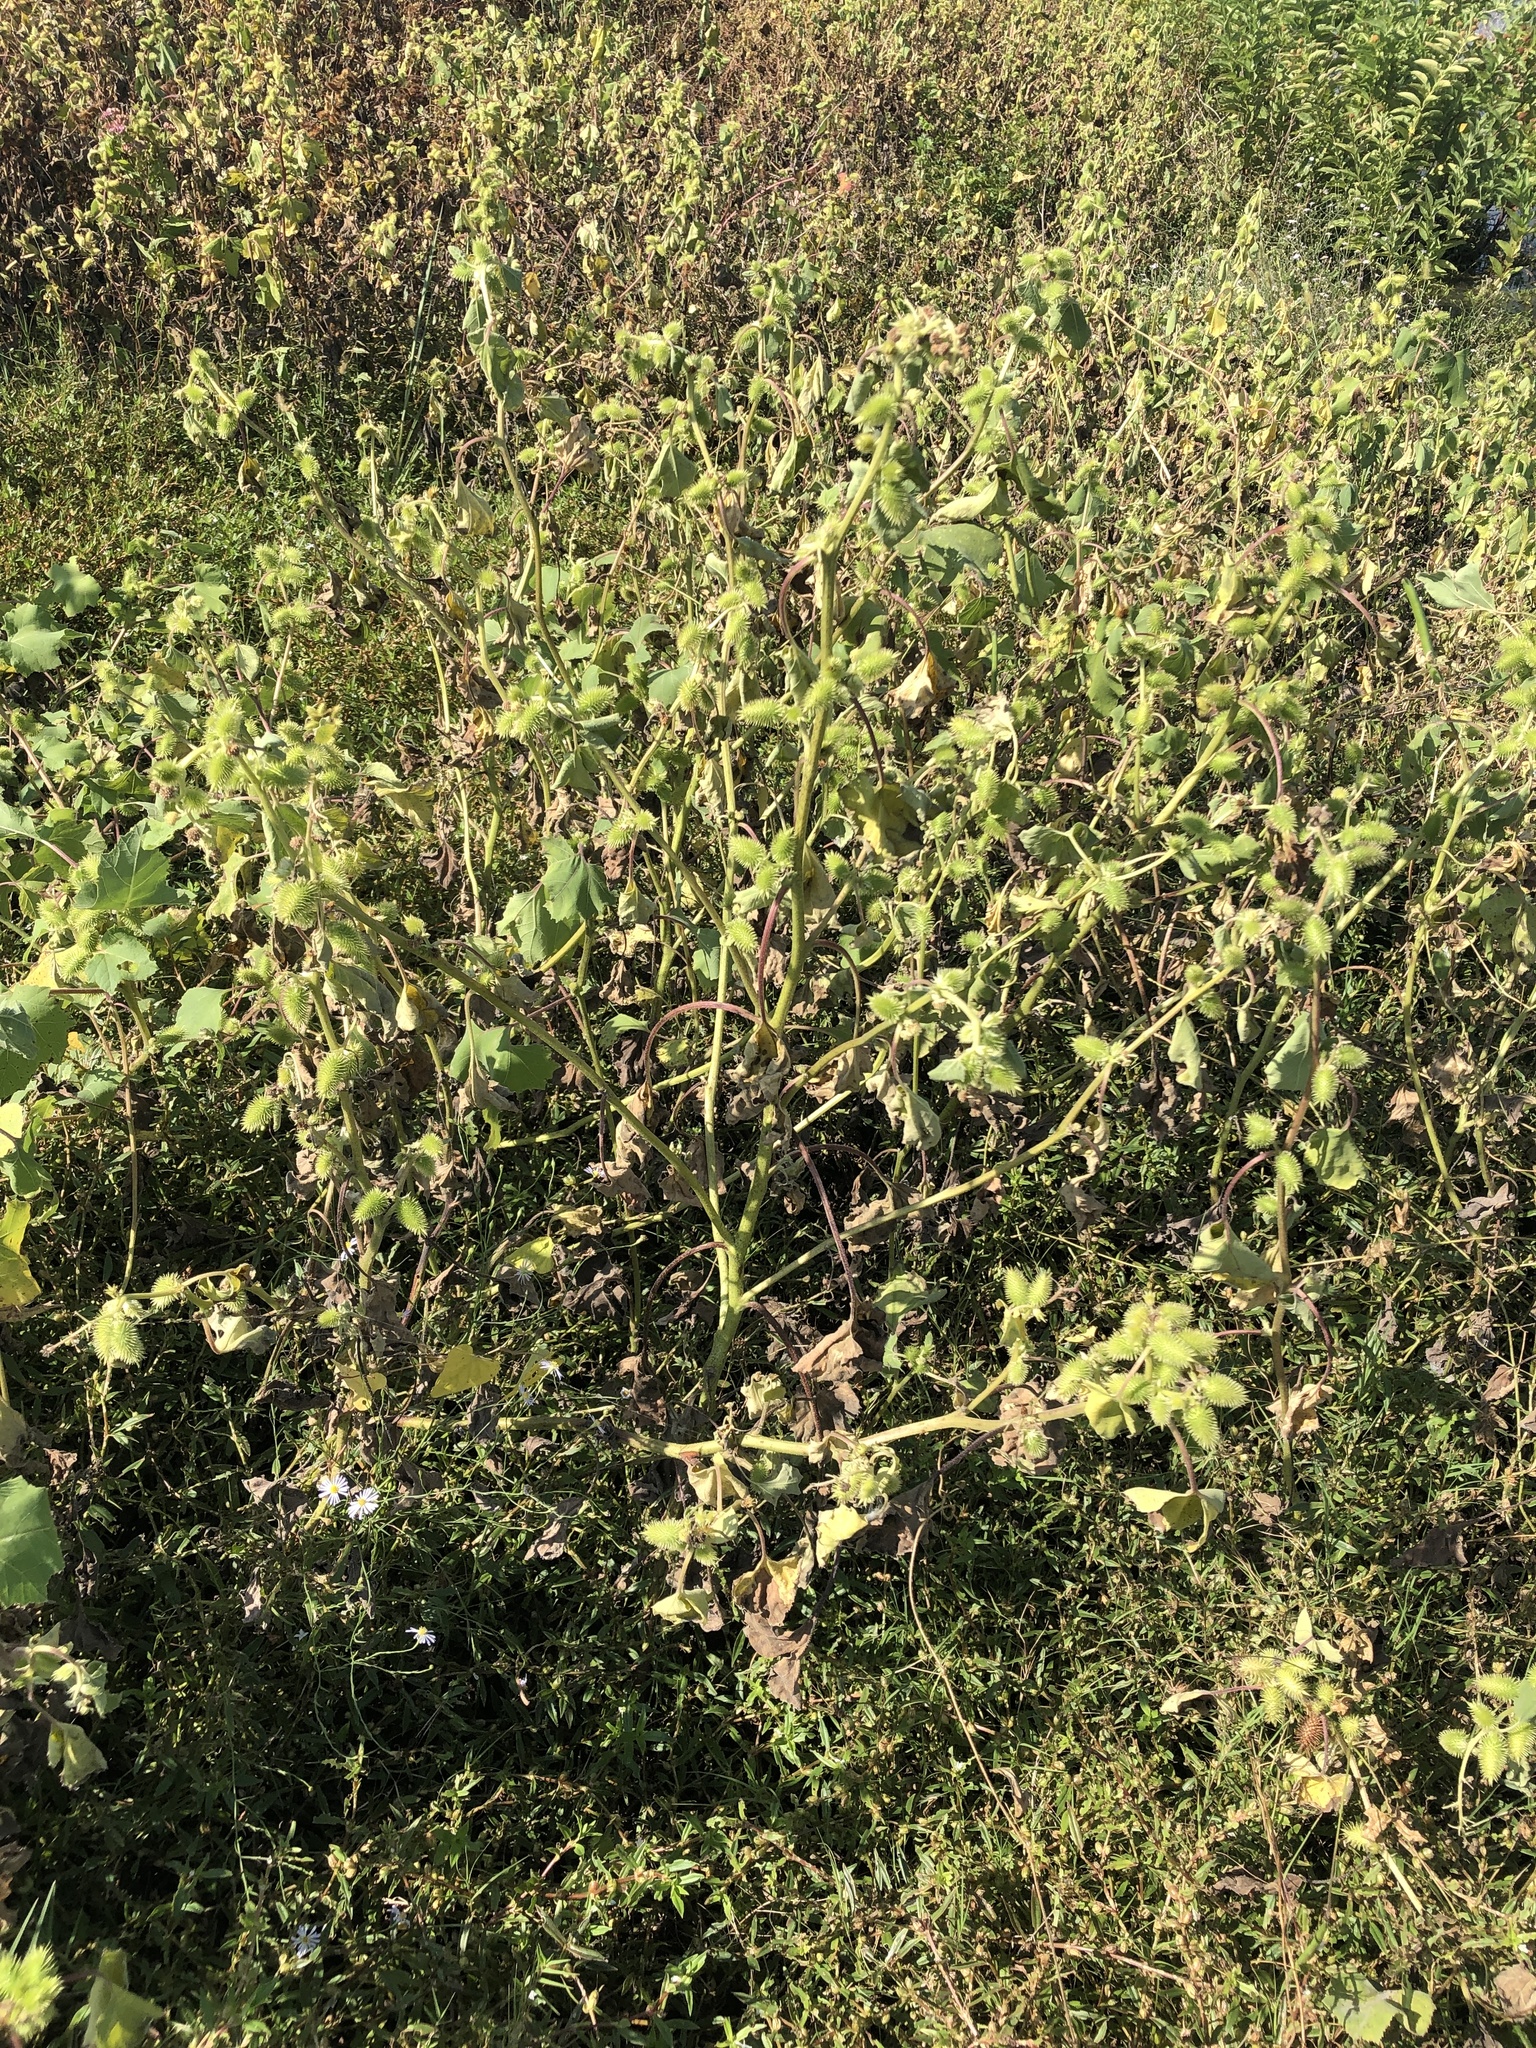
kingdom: Plantae
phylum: Tracheophyta
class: Magnoliopsida
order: Asterales
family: Asteraceae
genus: Xanthium
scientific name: Xanthium strumarium
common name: Rough cocklebur
